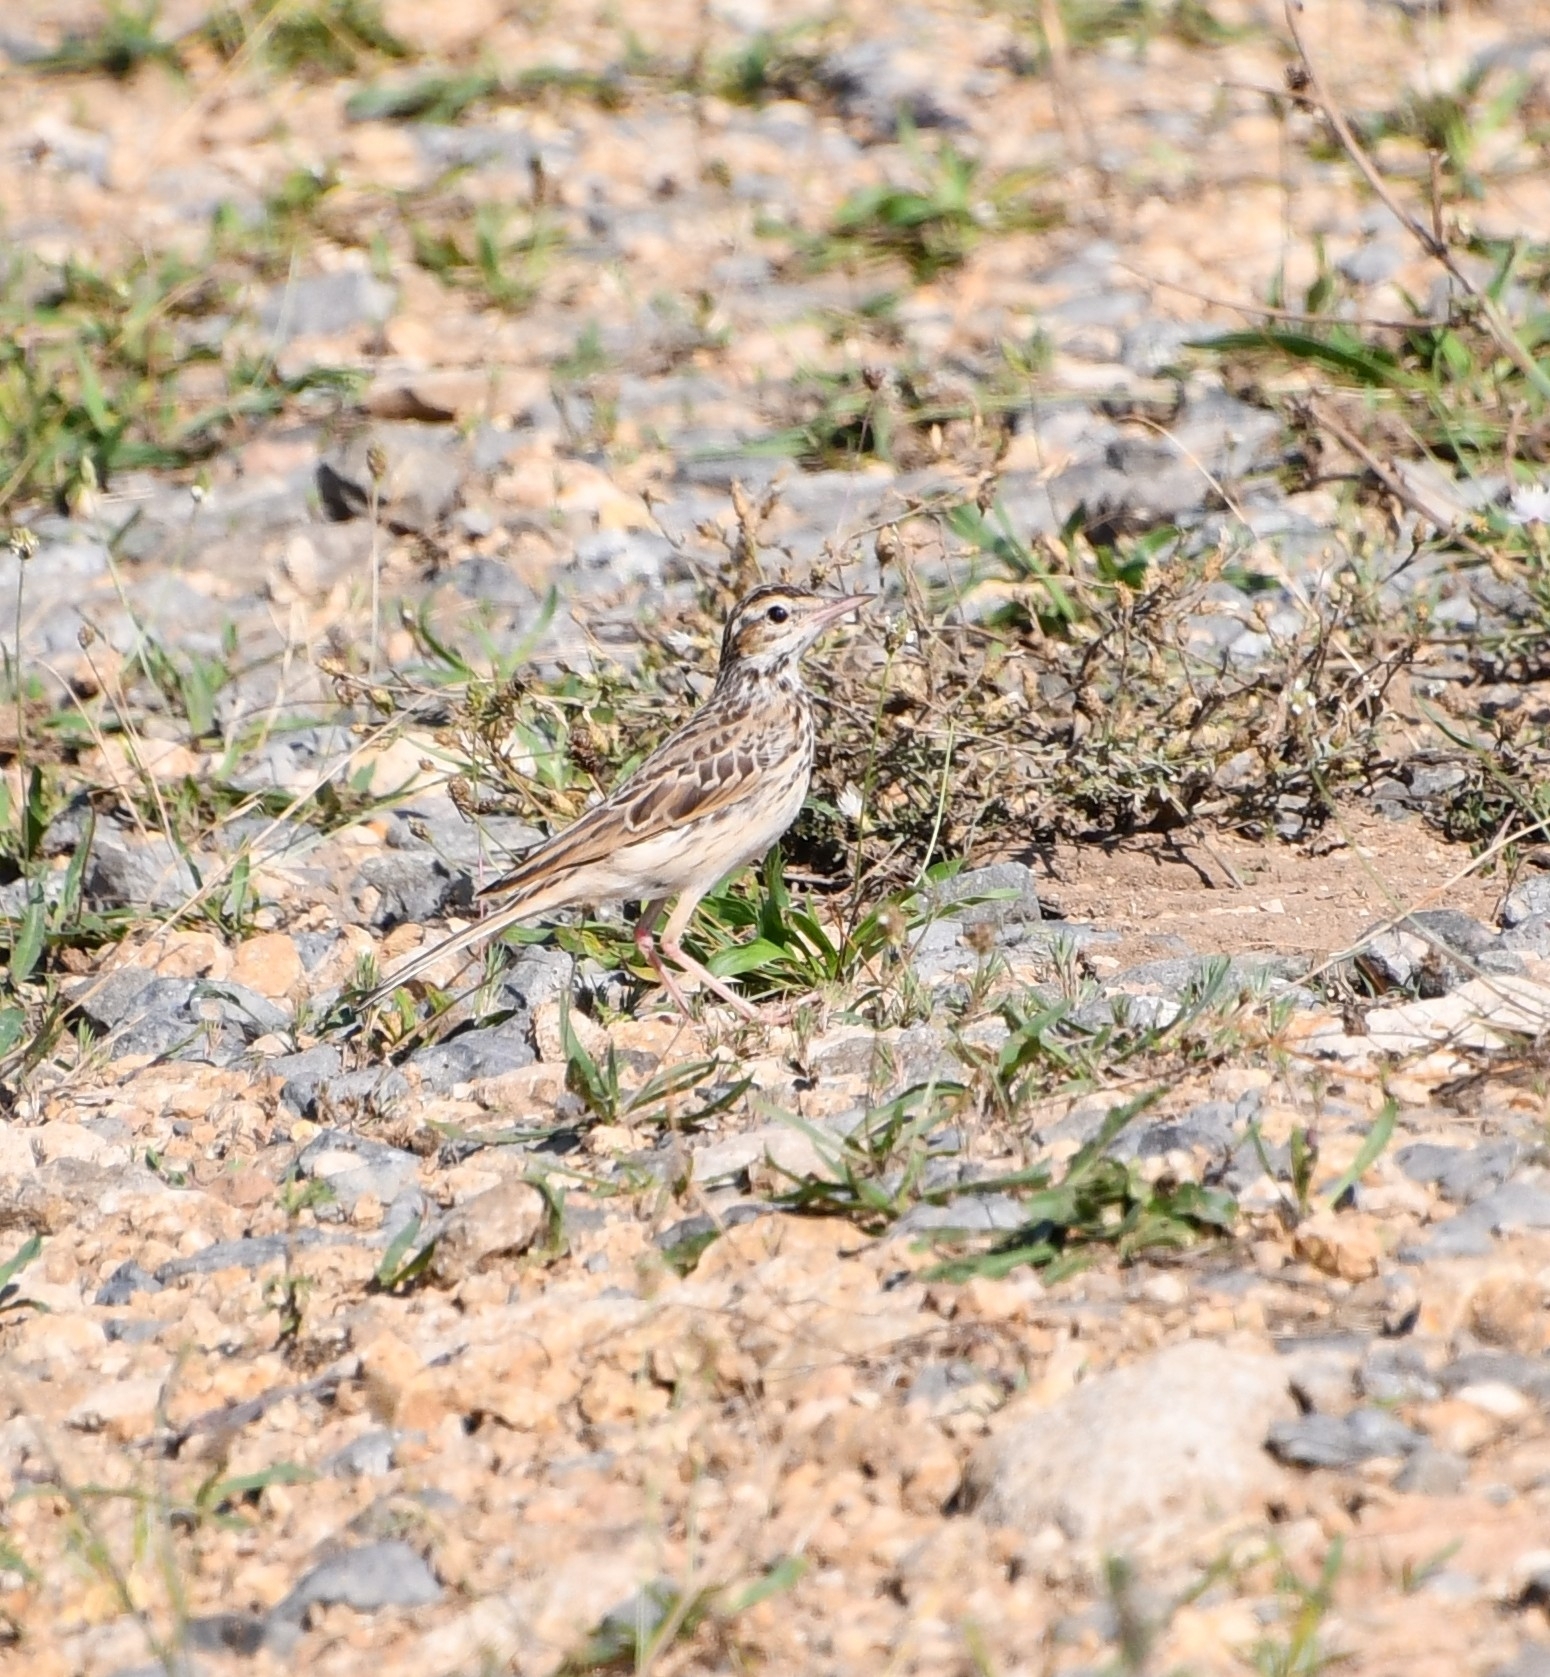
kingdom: Animalia
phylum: Chordata
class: Aves
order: Passeriformes
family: Motacillidae
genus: Anthus
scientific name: Anthus campestris
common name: Tawny pipit
